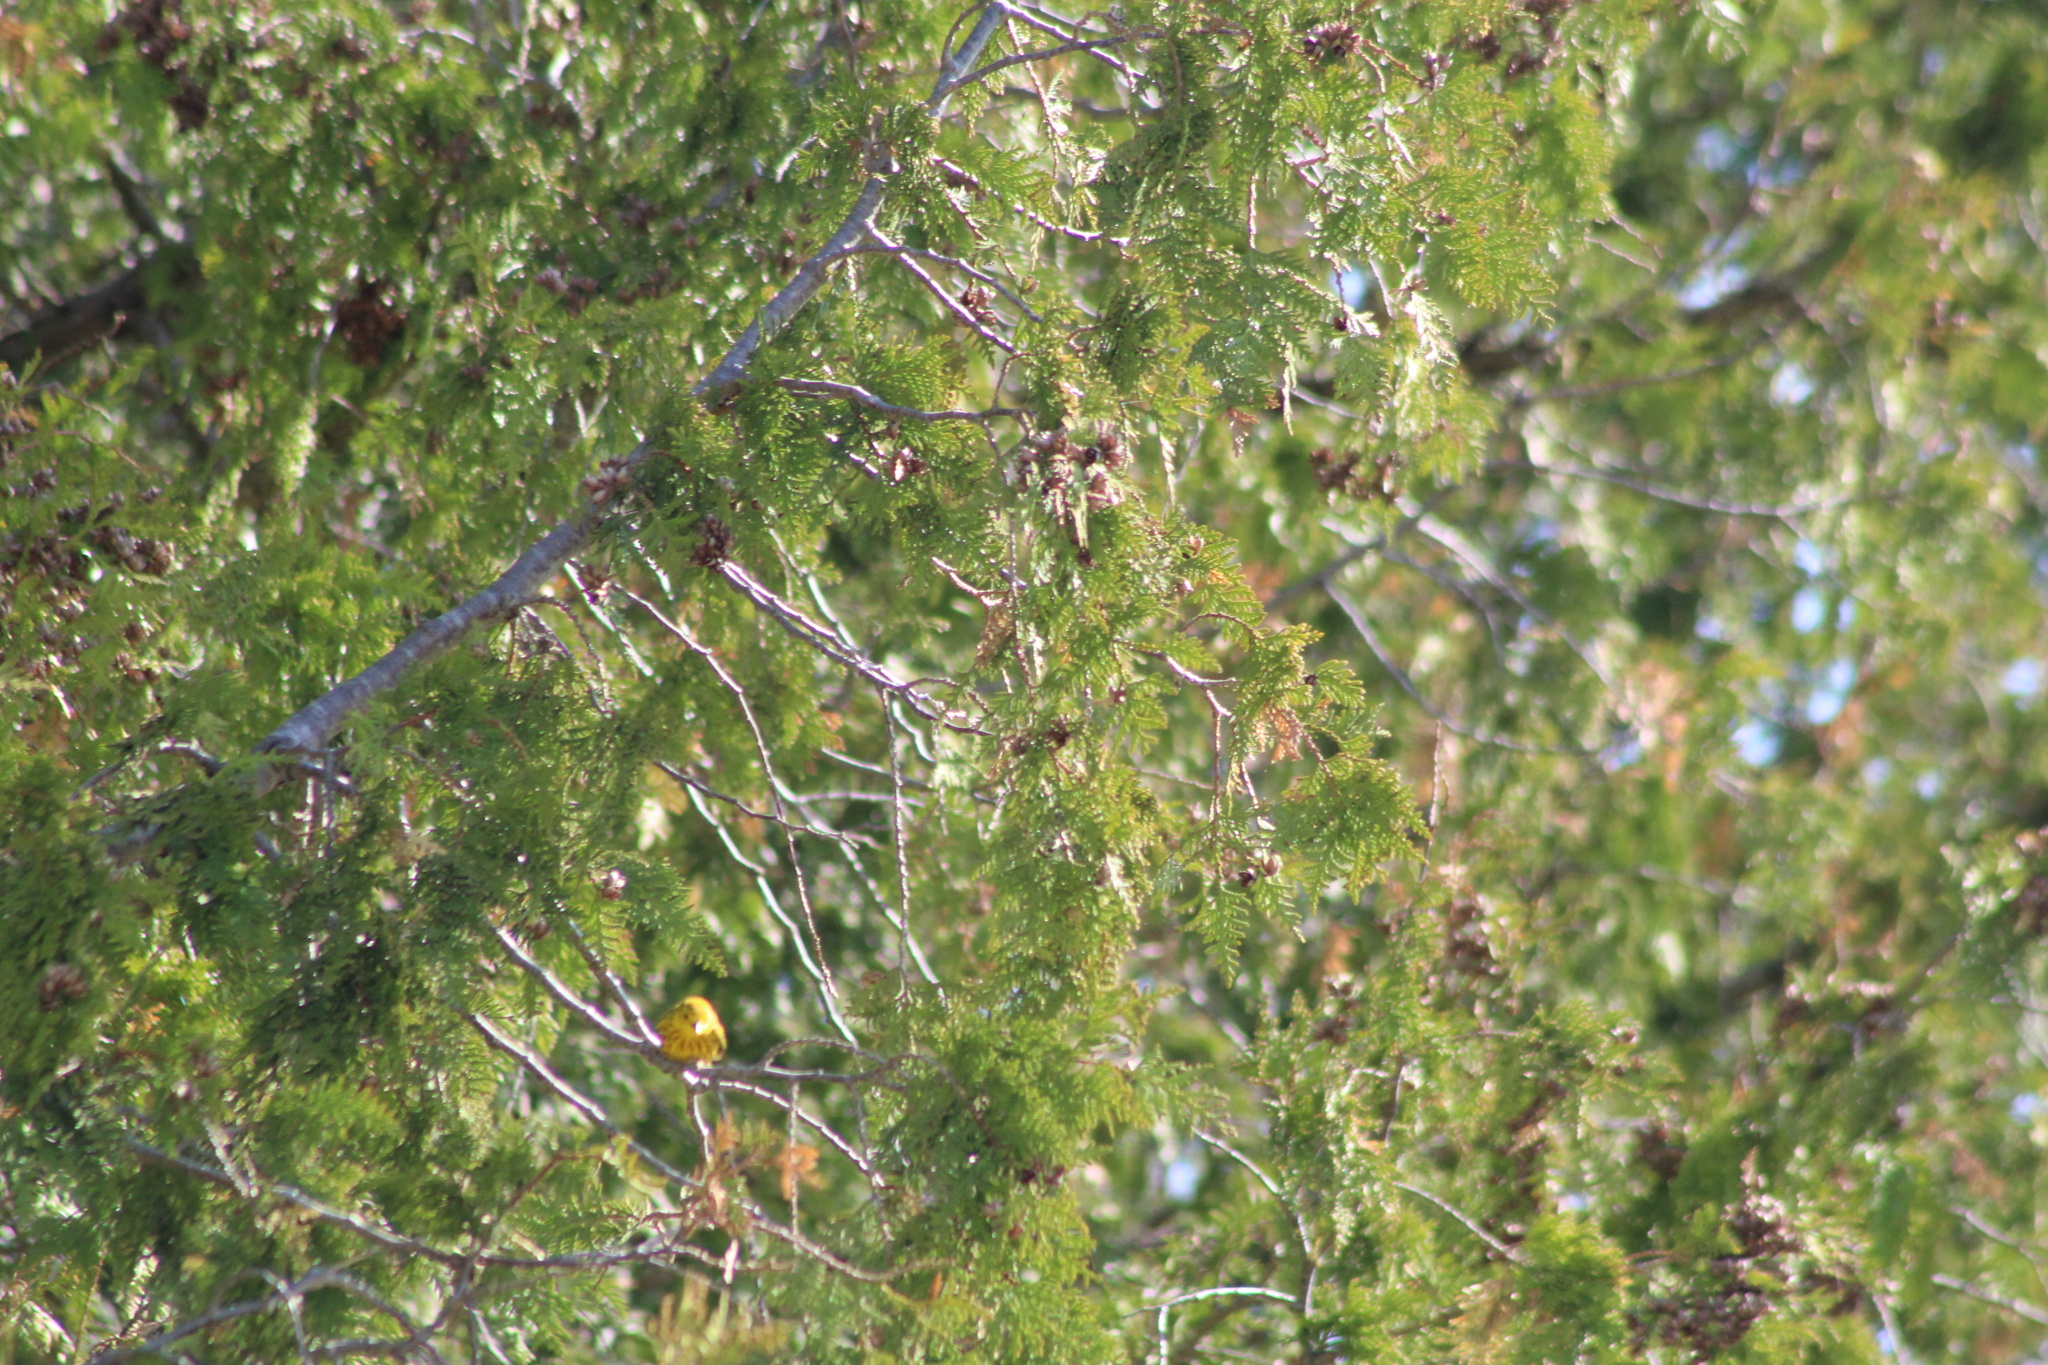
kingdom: Animalia
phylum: Chordata
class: Aves
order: Passeriformes
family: Parulidae
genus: Setophaga
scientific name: Setophaga petechia
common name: Yellow warbler
